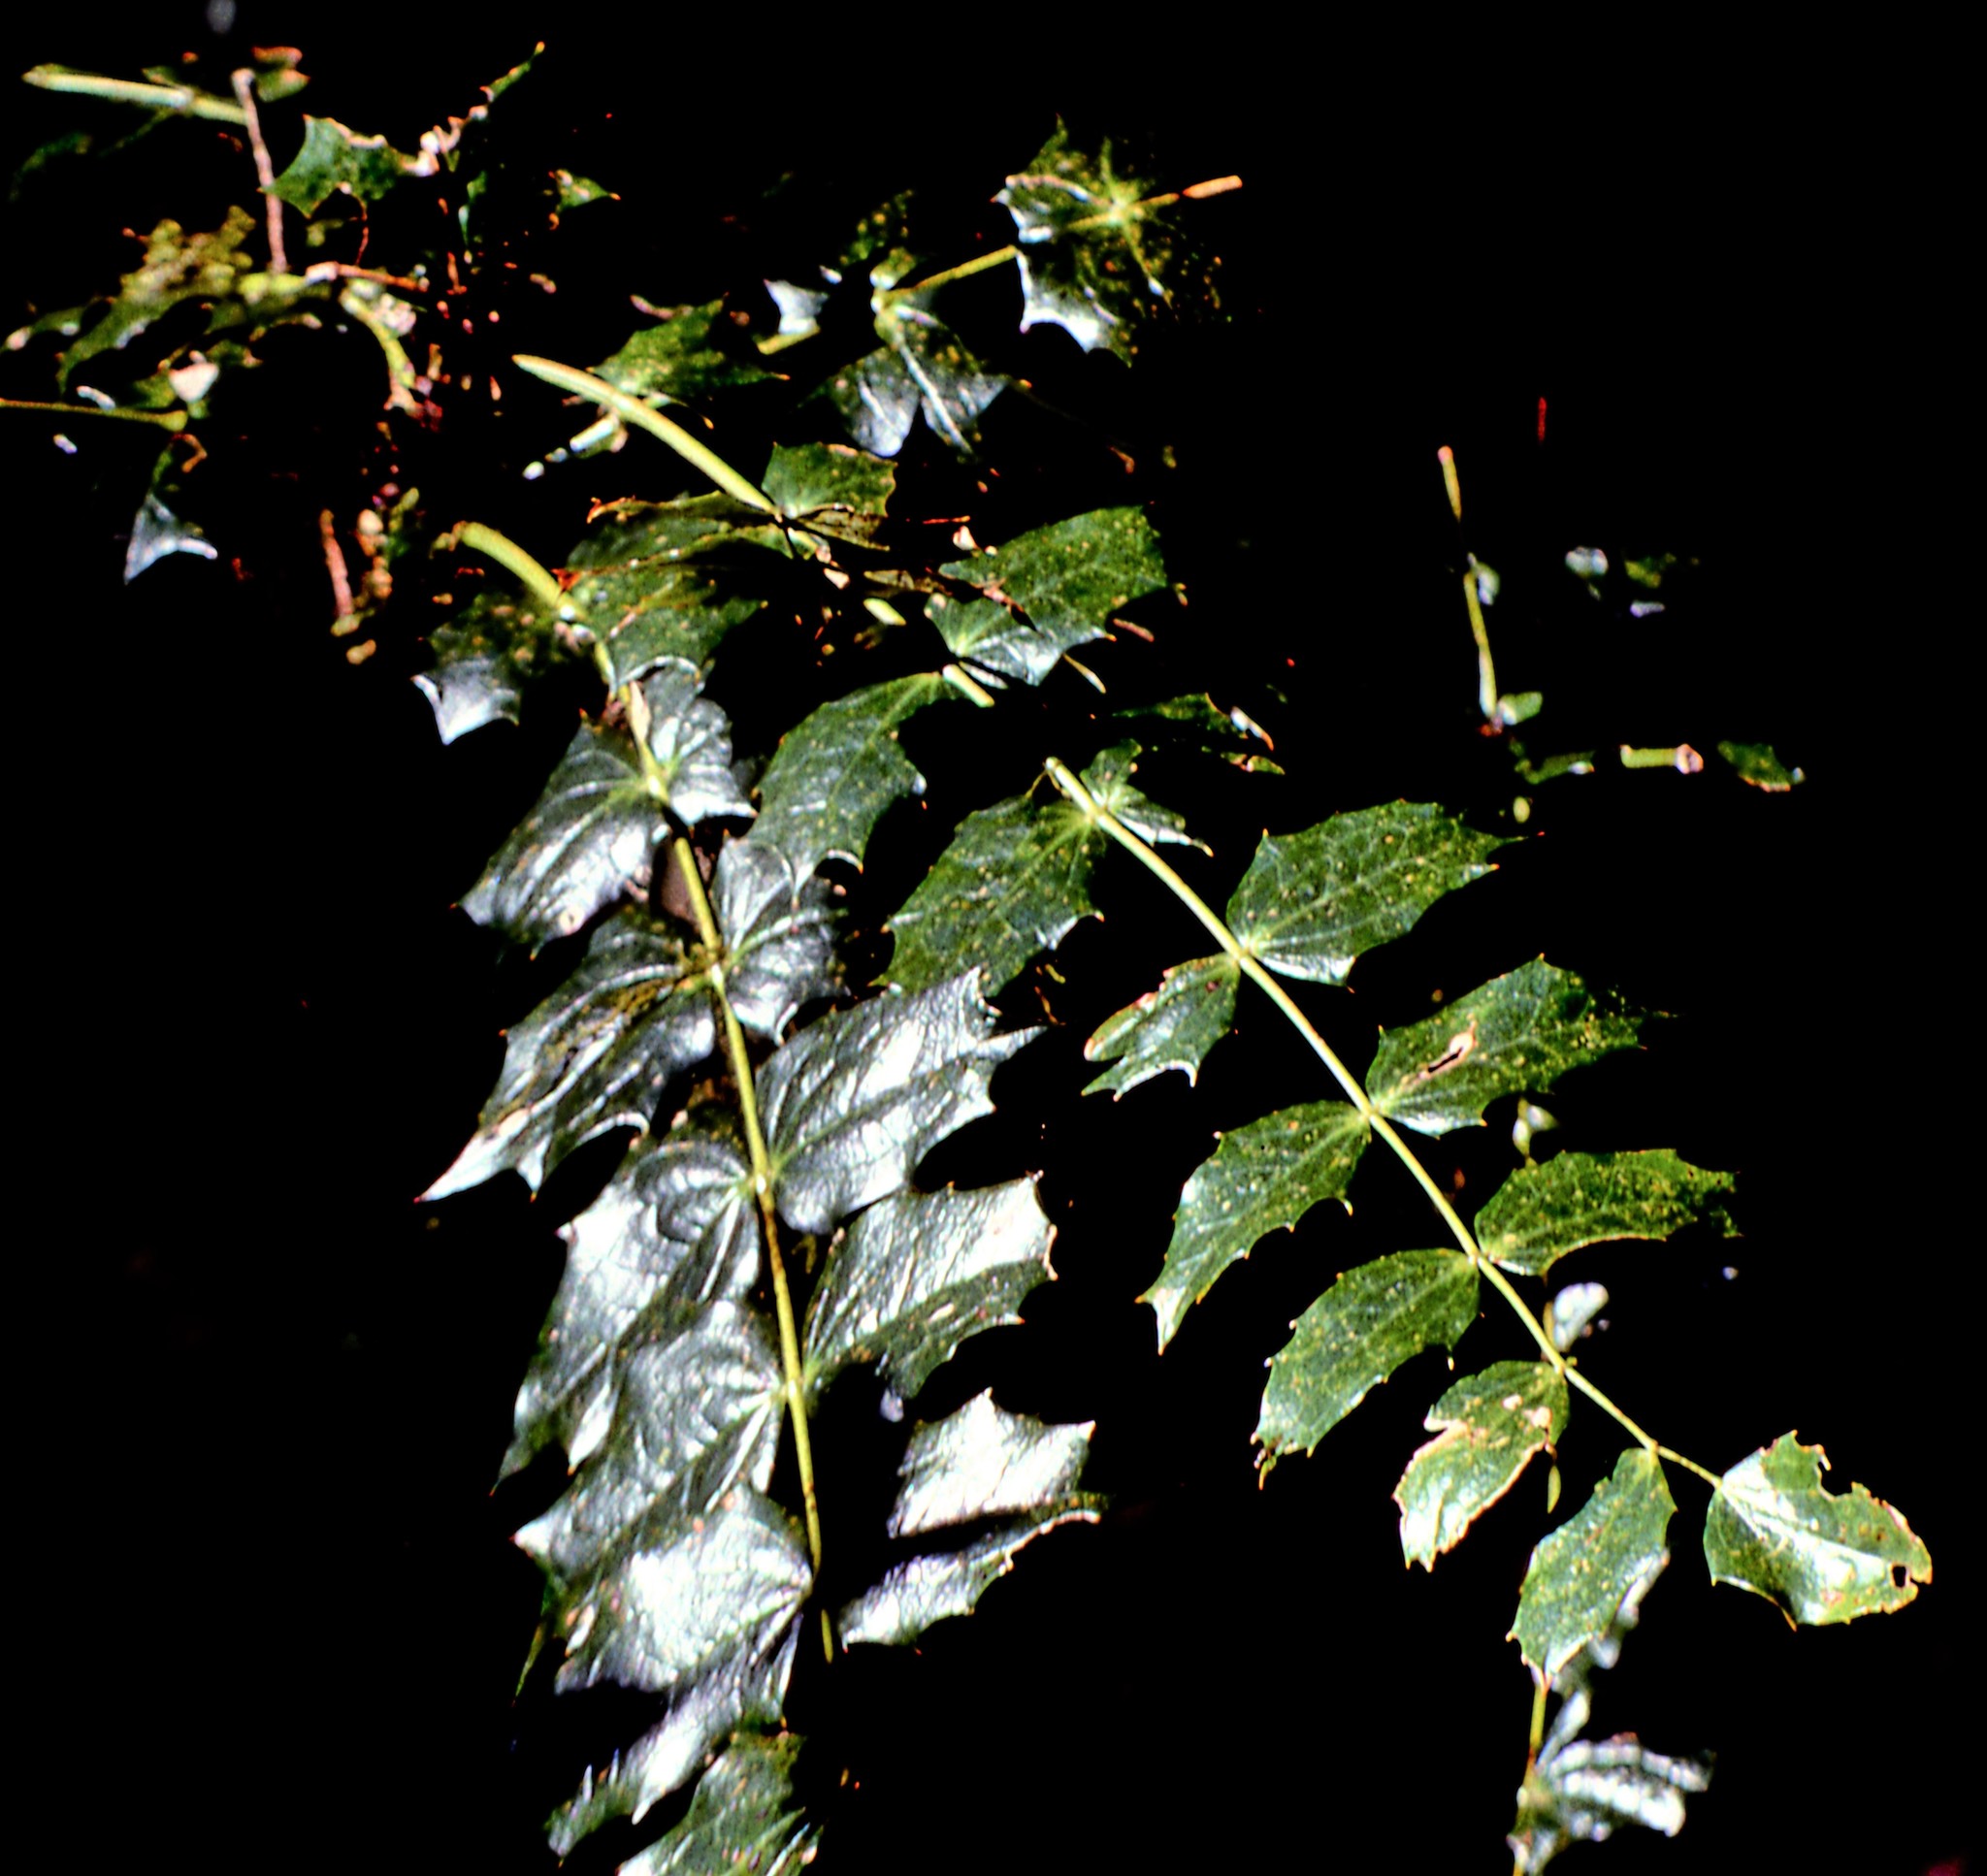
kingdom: Plantae
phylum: Tracheophyta
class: Magnoliopsida
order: Ranunculales
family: Berberidaceae
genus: Mahonia
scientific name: Mahonia napaulensis
